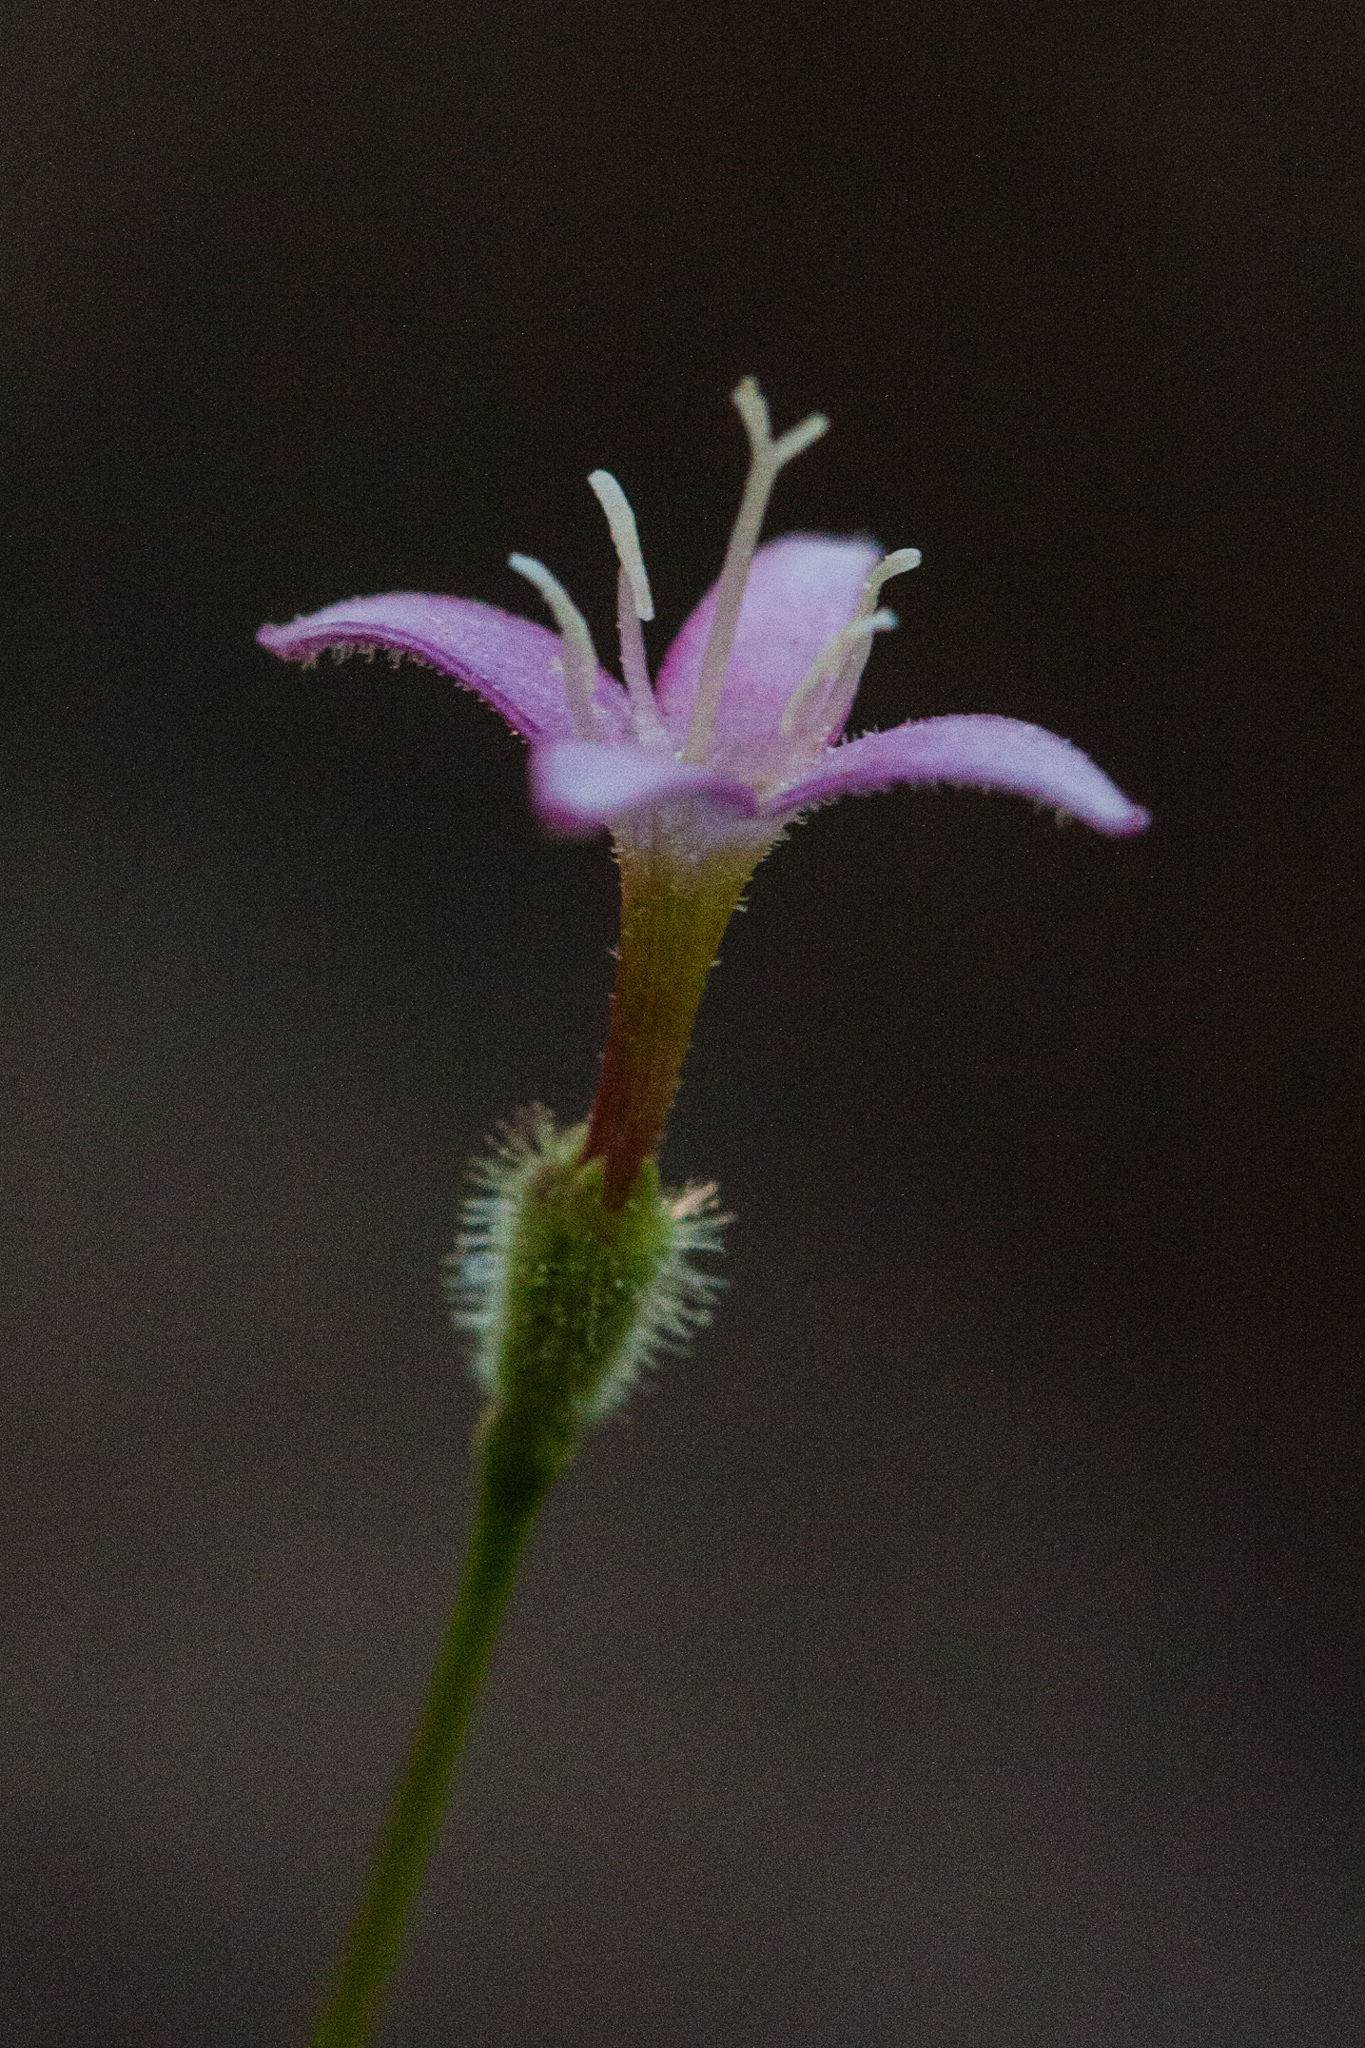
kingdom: Plantae
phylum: Tracheophyta
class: Magnoliopsida
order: Gentianales
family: Rubiaceae
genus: Kelloggia
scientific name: Kelloggia galioides
